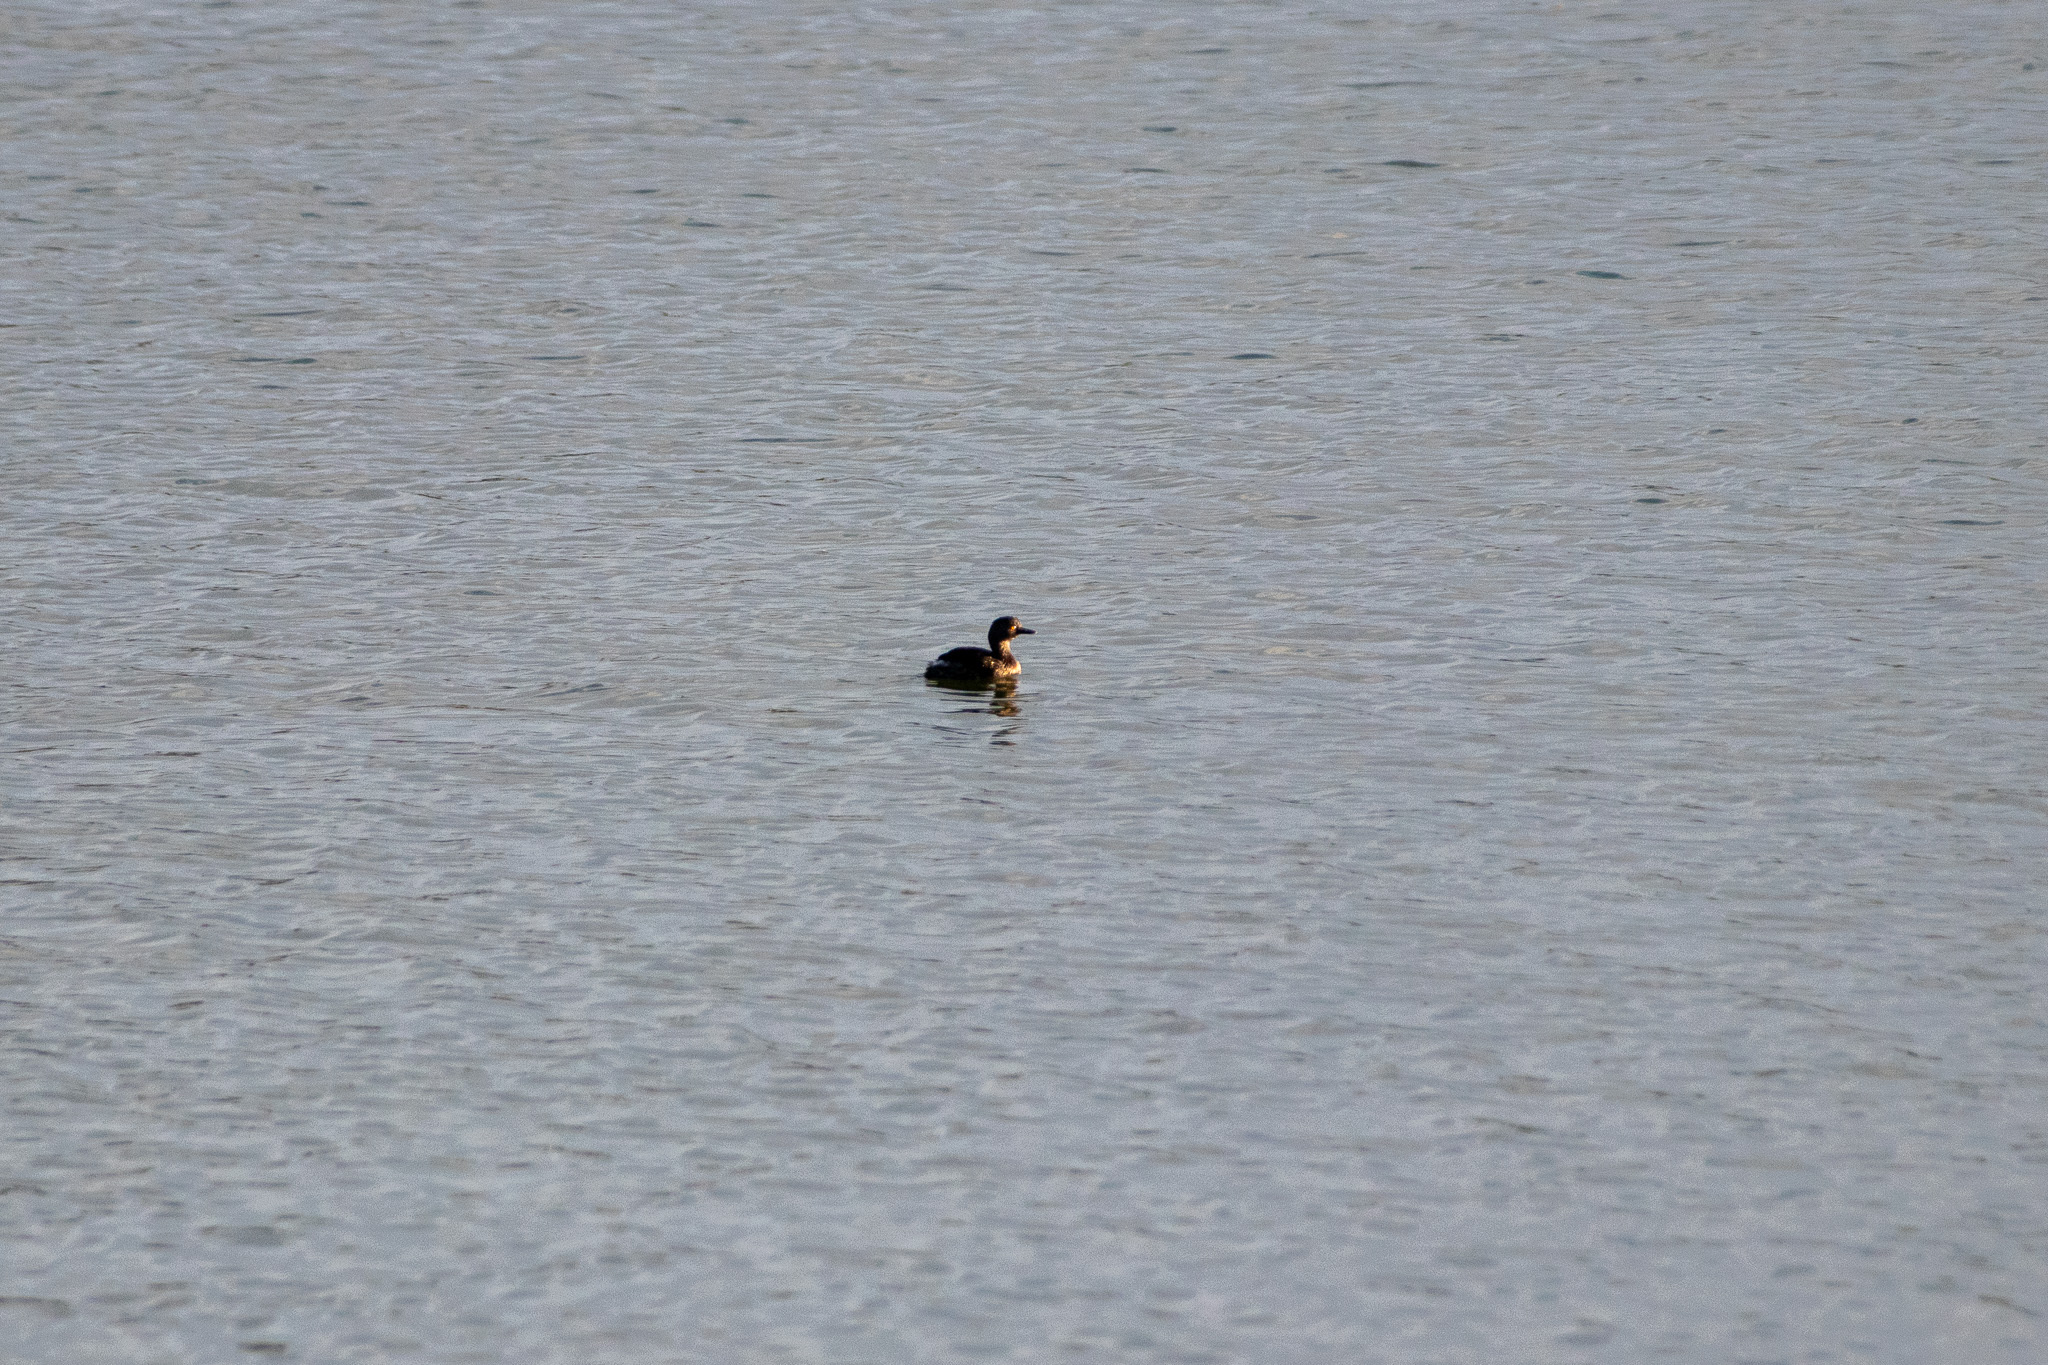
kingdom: Animalia
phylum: Chordata
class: Aves
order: Podicipediformes
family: Podicipedidae
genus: Tachybaptus
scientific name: Tachybaptus dominicus
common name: Least grebe
